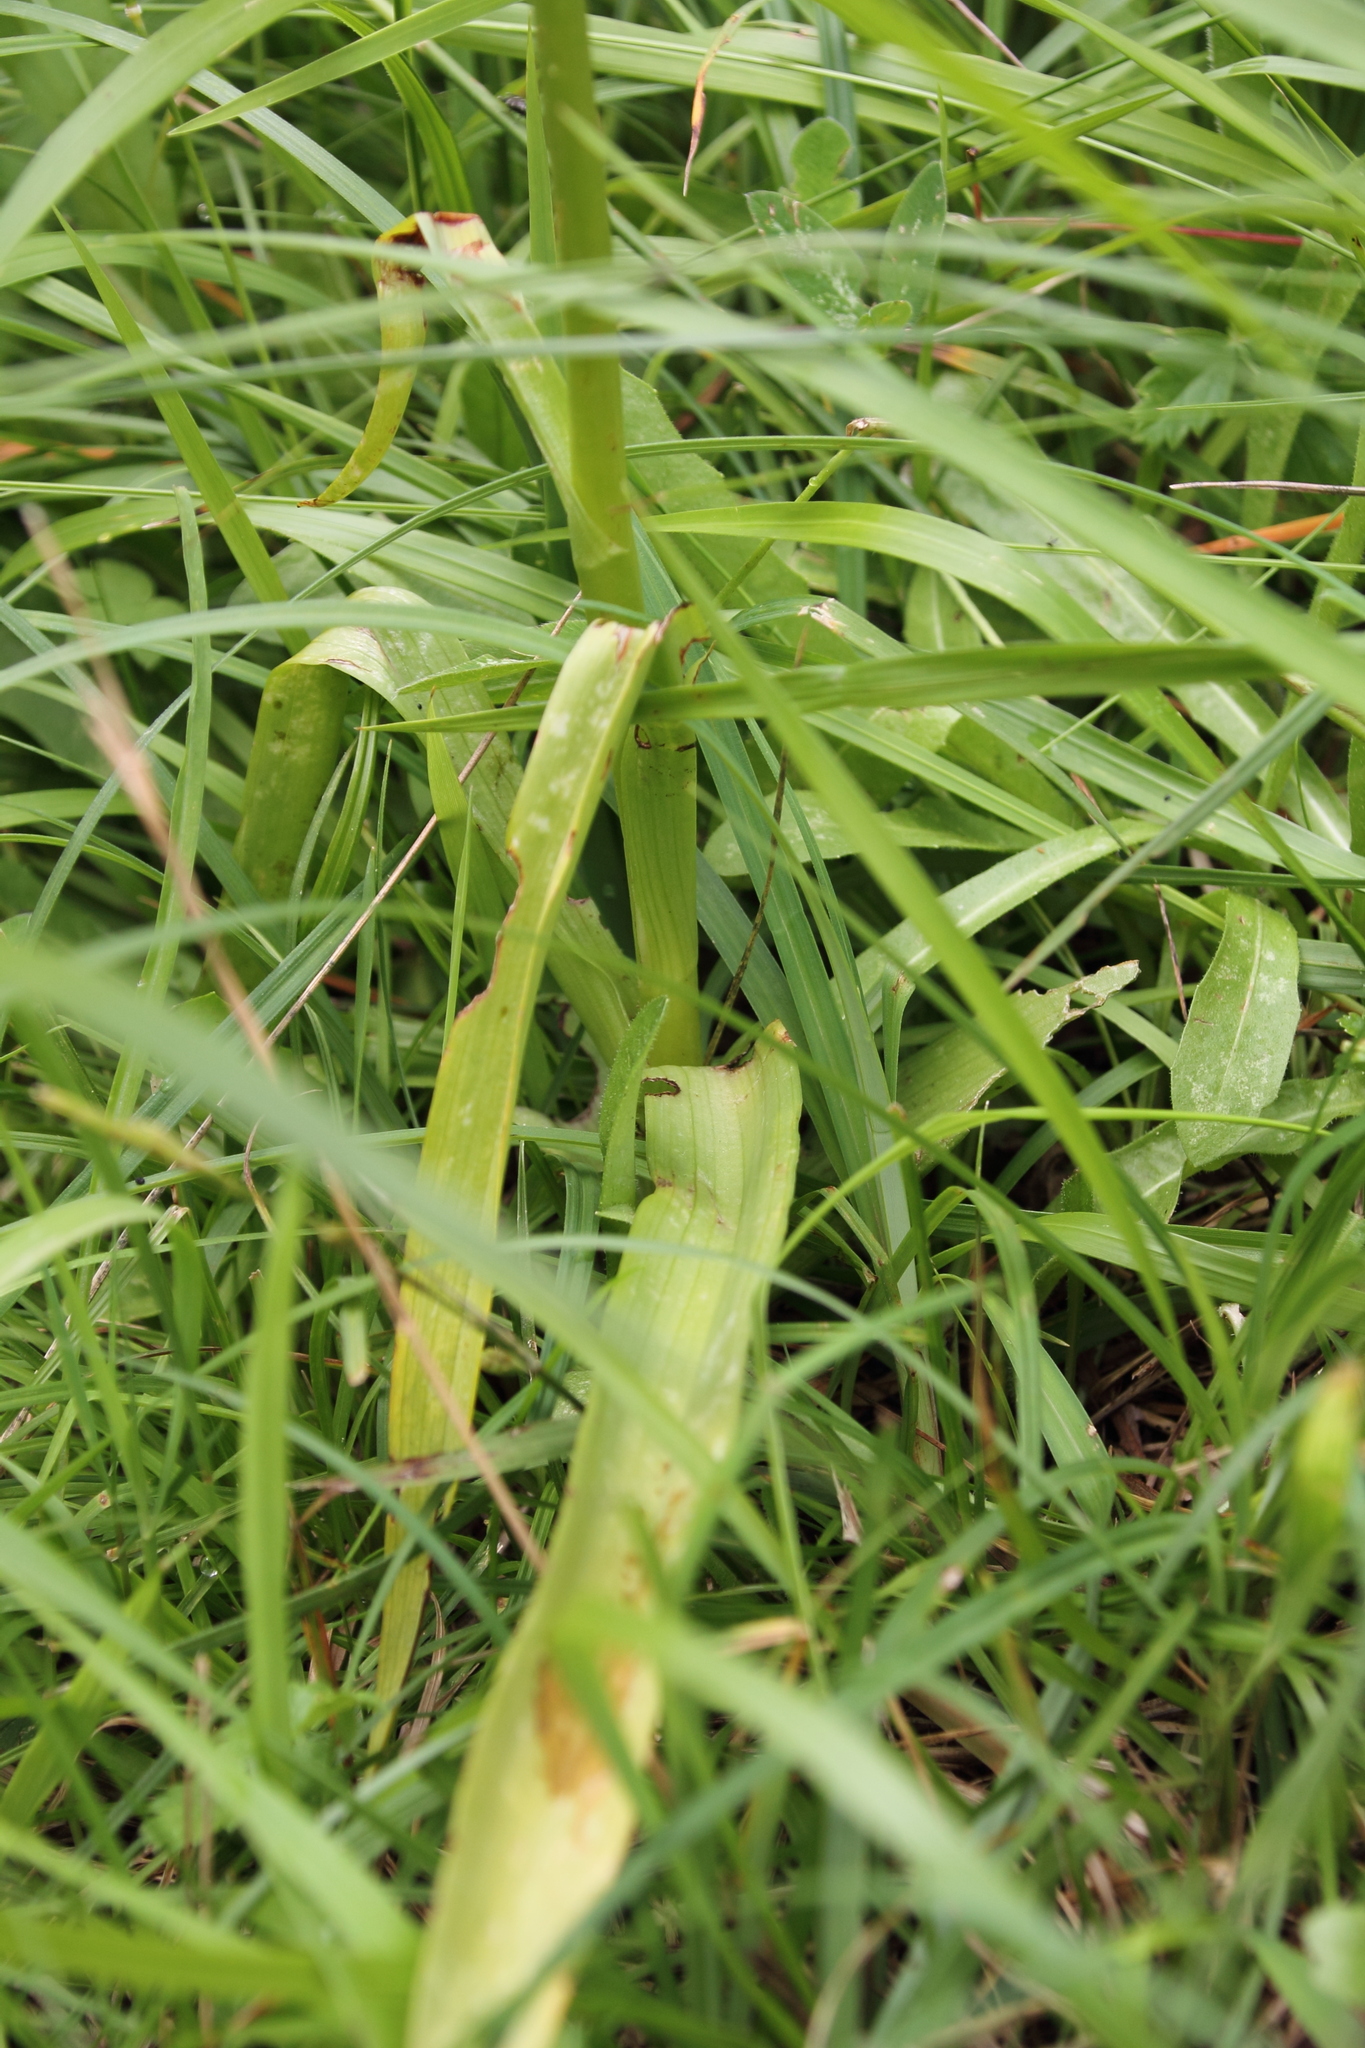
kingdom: Plantae
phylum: Tracheophyta
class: Liliopsida
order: Asparagales
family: Orchidaceae
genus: Gymnadenia
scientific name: Gymnadenia conopsea
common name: Fragrant orchid
